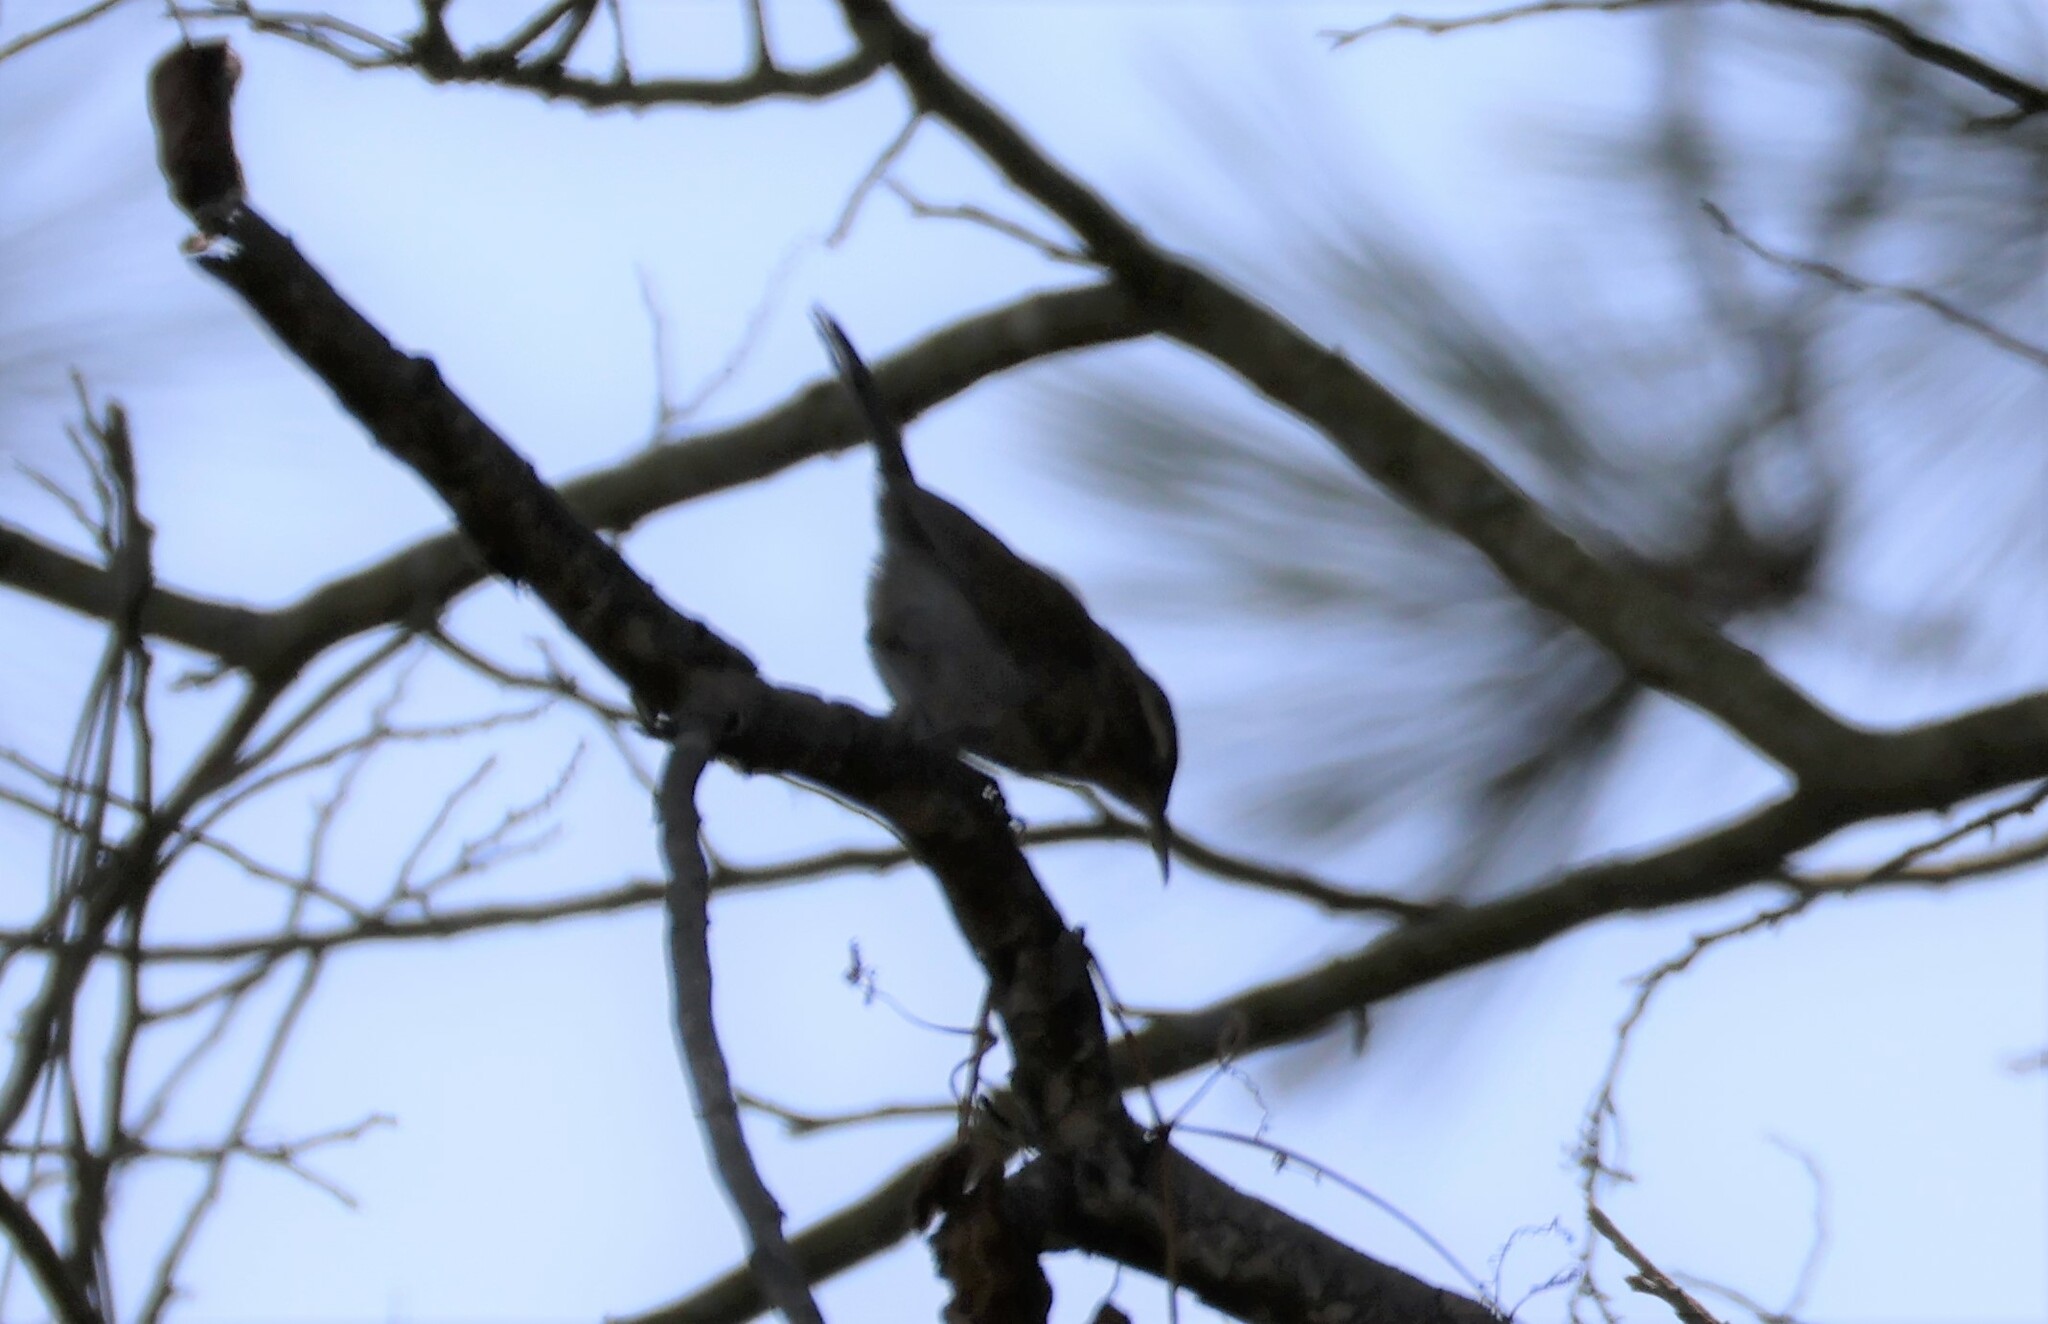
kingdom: Animalia
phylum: Chordata
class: Aves
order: Passeriformes
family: Troglodytidae
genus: Thryomanes
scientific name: Thryomanes bewickii
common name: Bewick's wren
